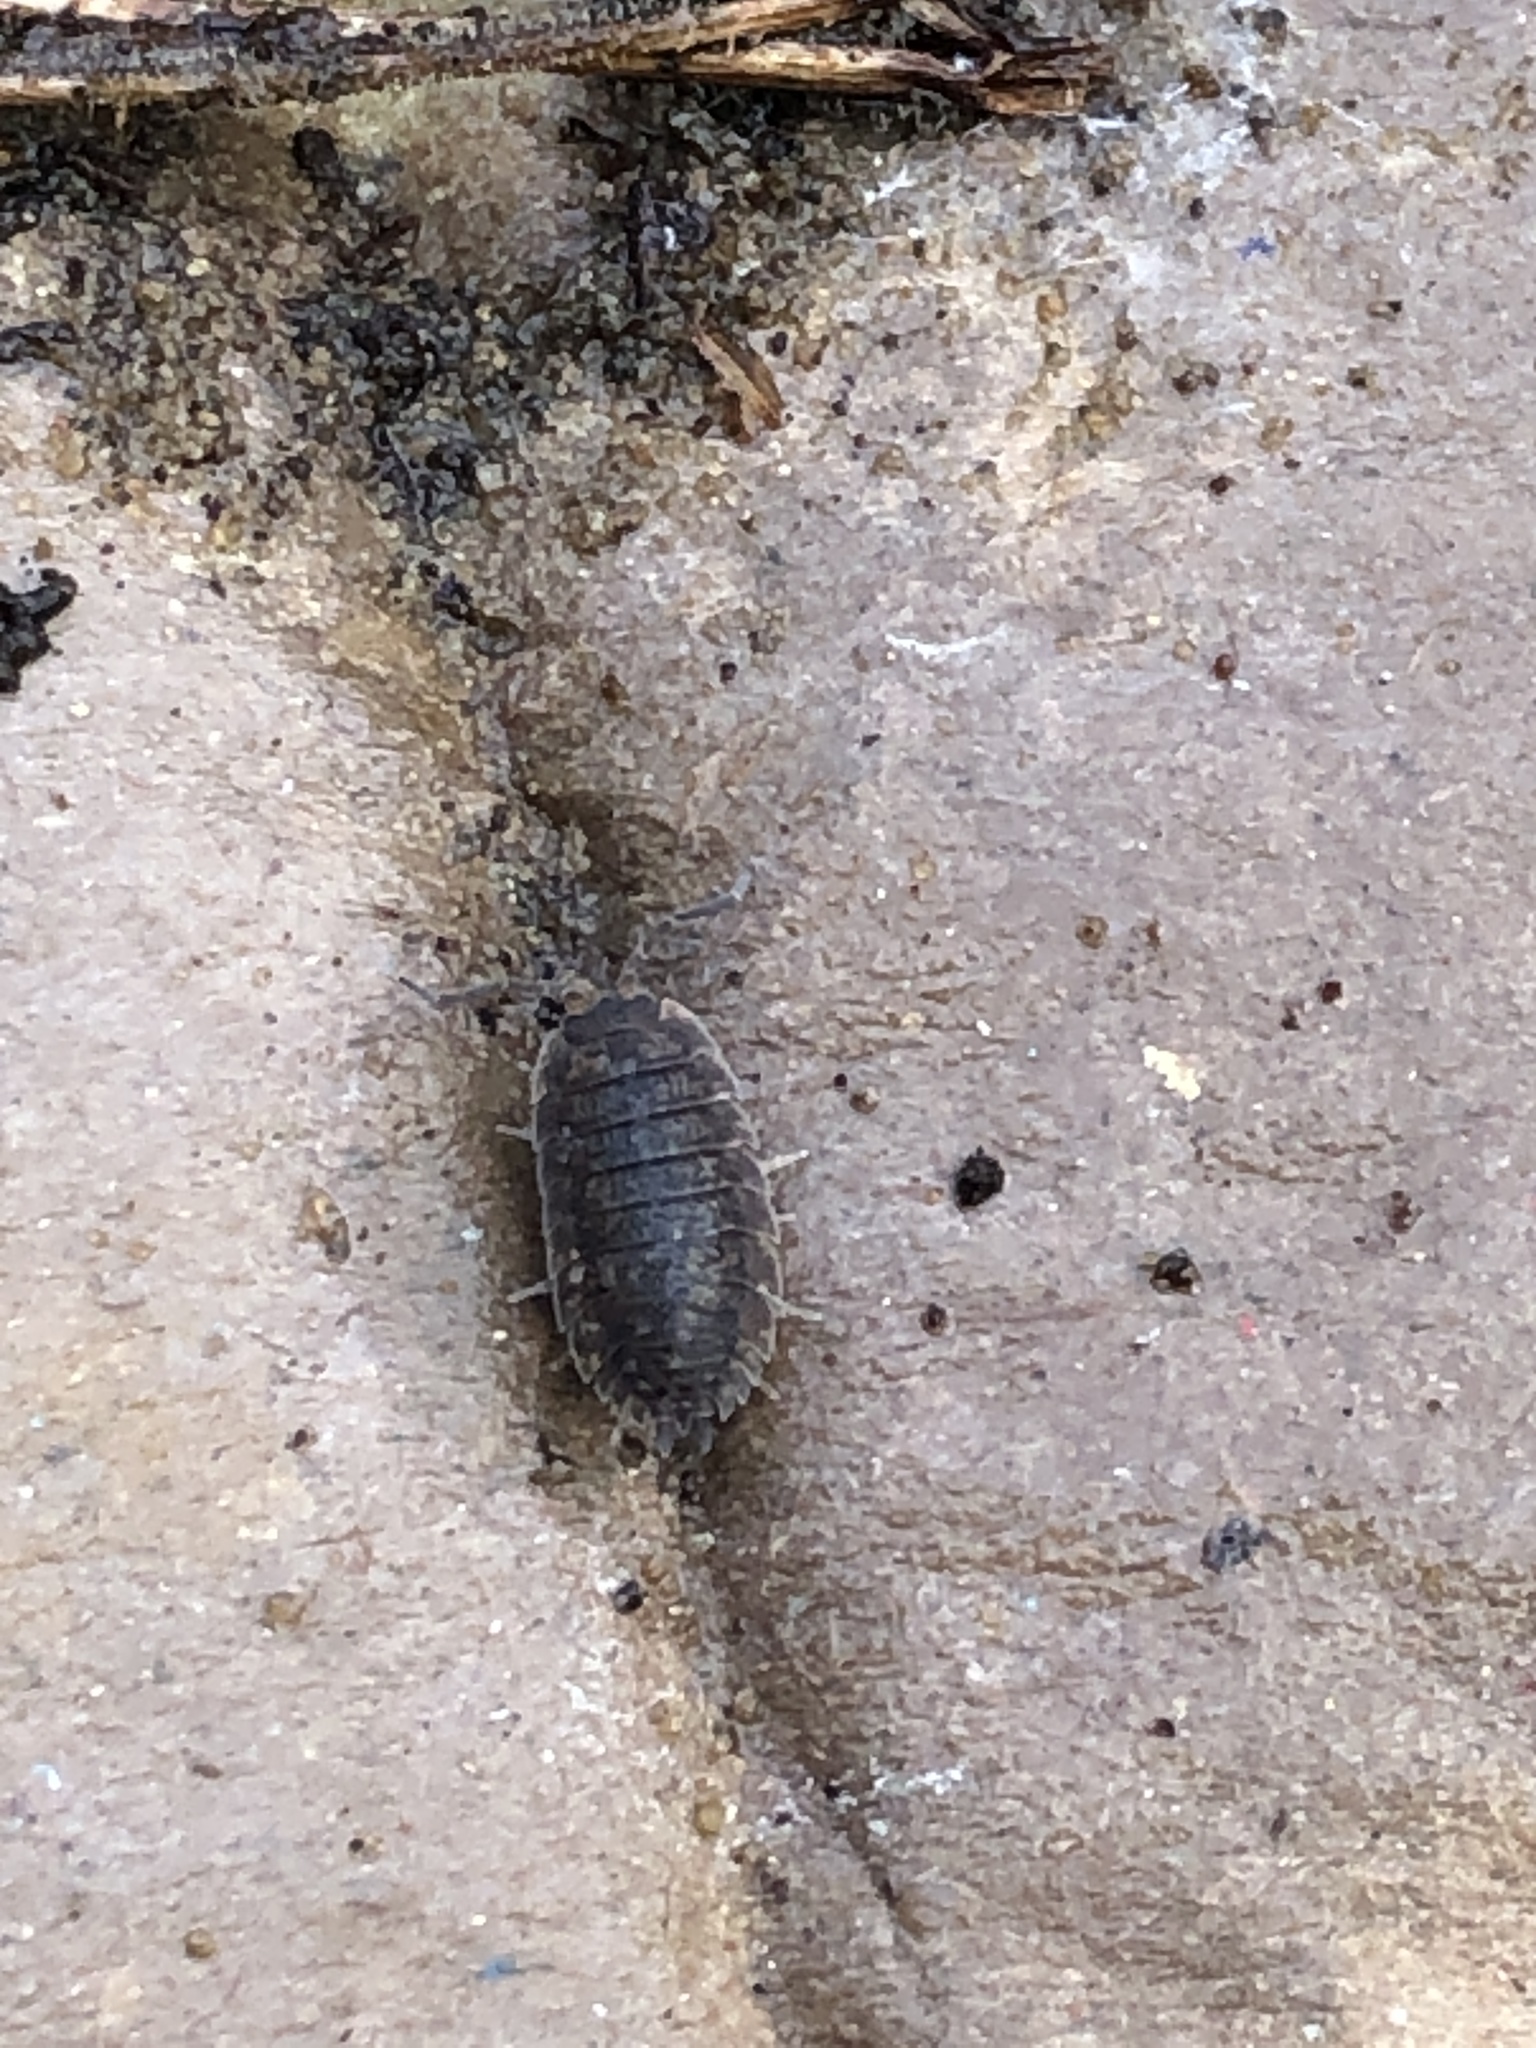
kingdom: Animalia
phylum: Arthropoda
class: Malacostraca
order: Isopoda
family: Porcellionidae
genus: Porcellio
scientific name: Porcellio scaber
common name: Common rough woodlouse
